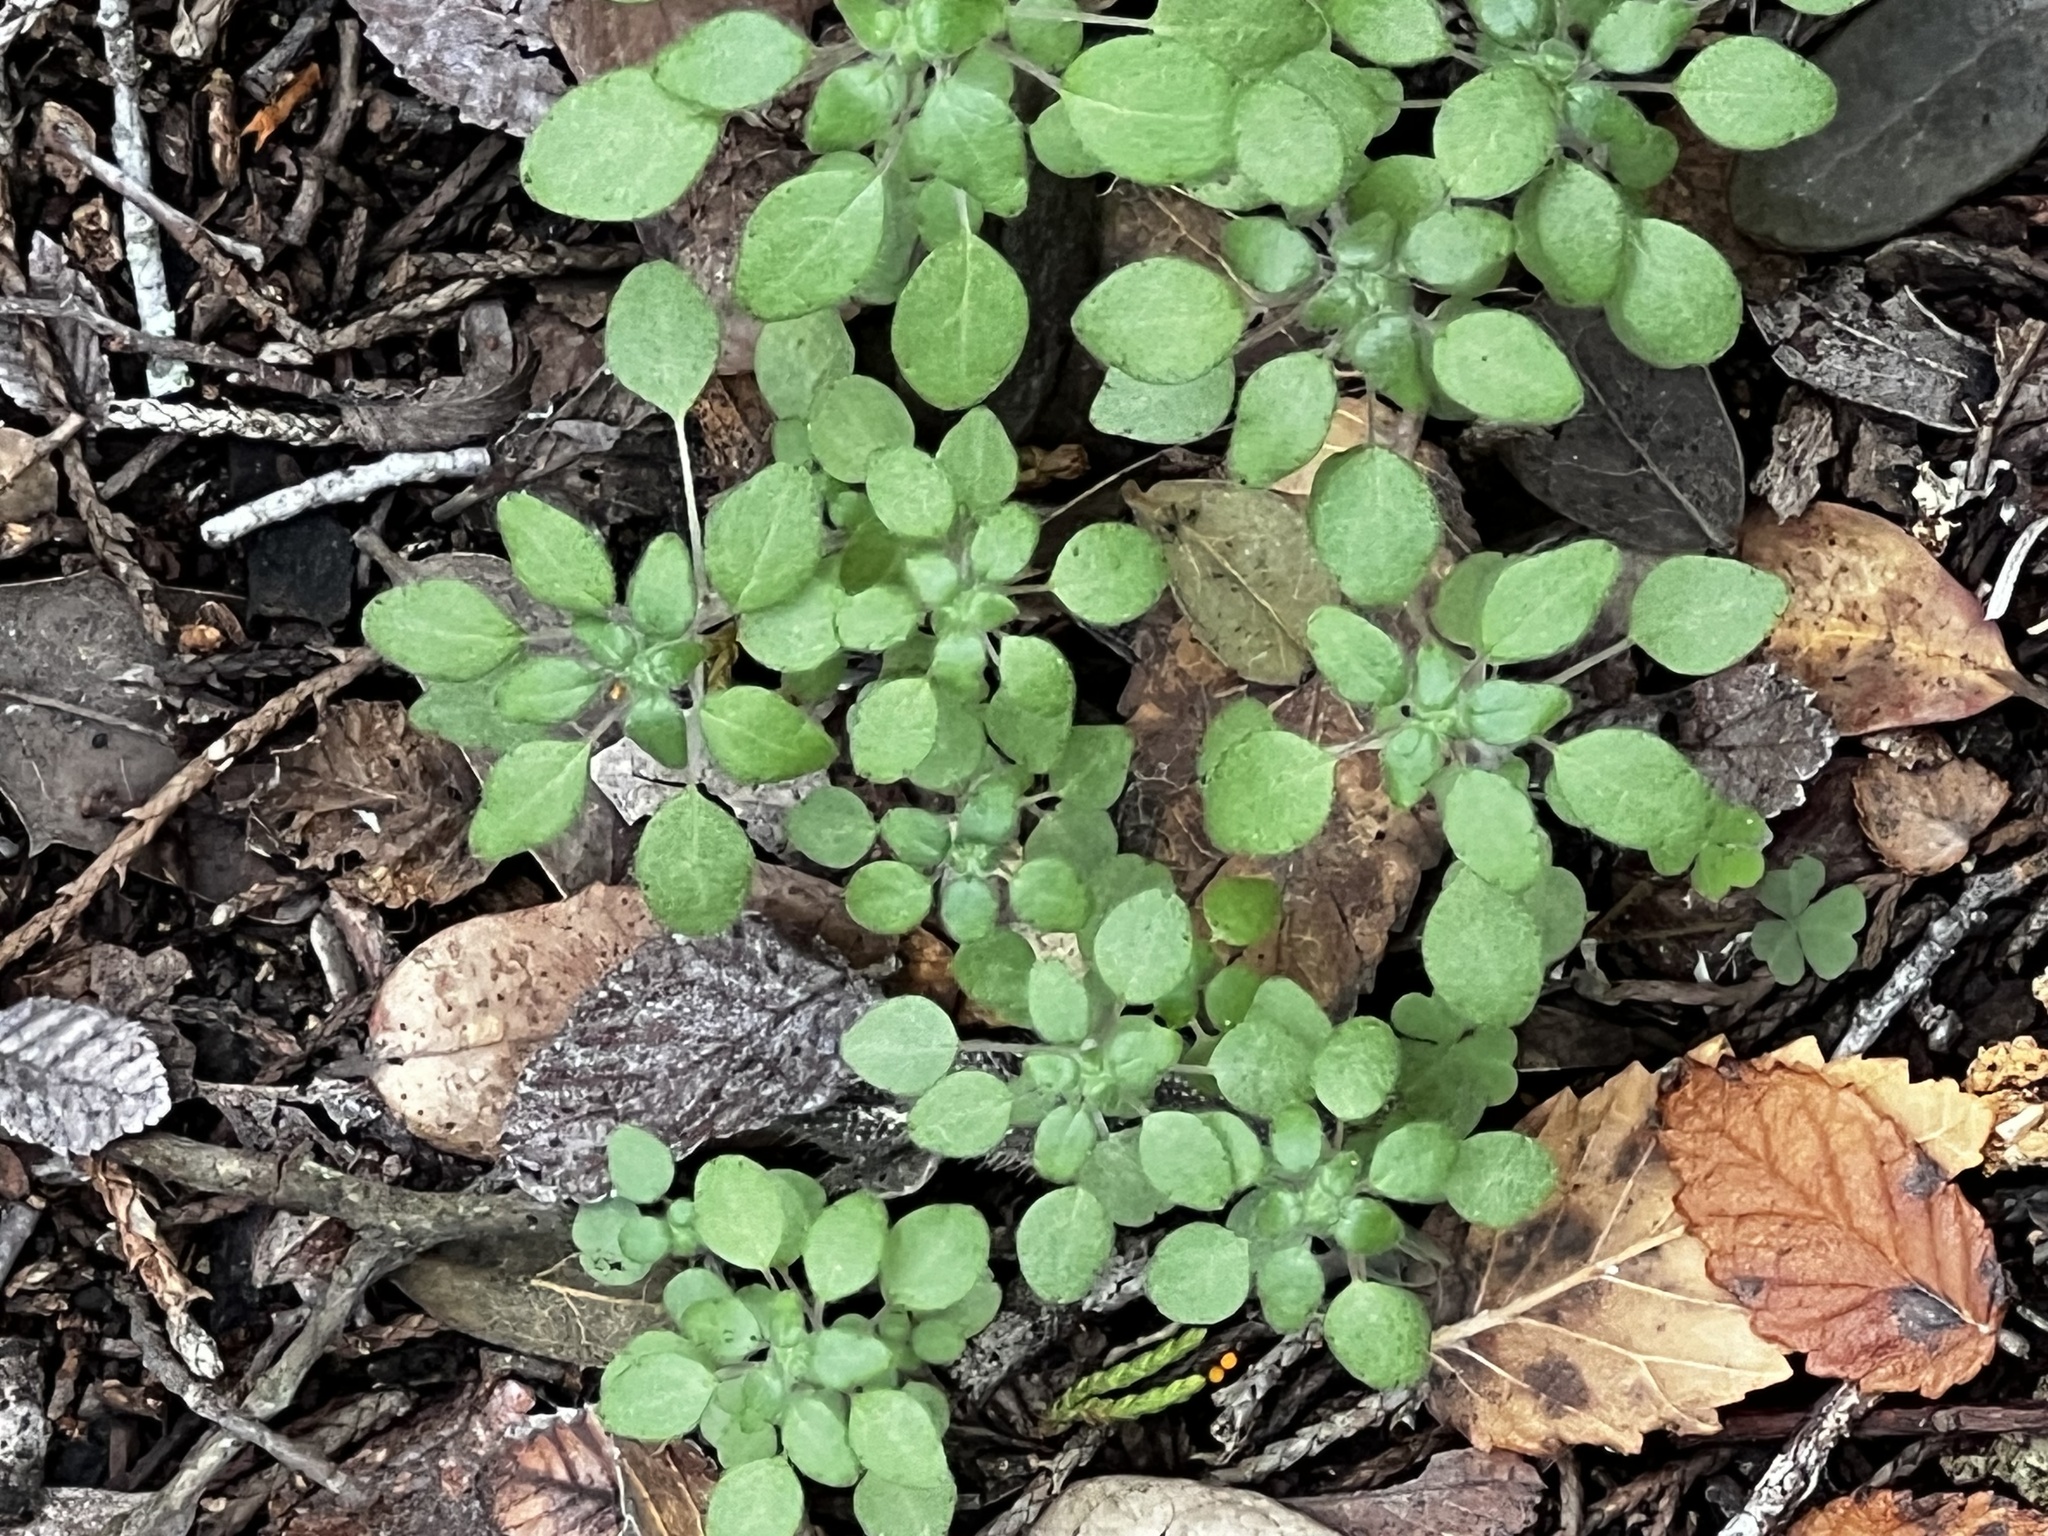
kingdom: Plantae
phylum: Tracheophyta
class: Magnoliopsida
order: Rosales
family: Urticaceae
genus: Parietaria
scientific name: Parietaria pensylvanica
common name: Pennsylvania pellitory
